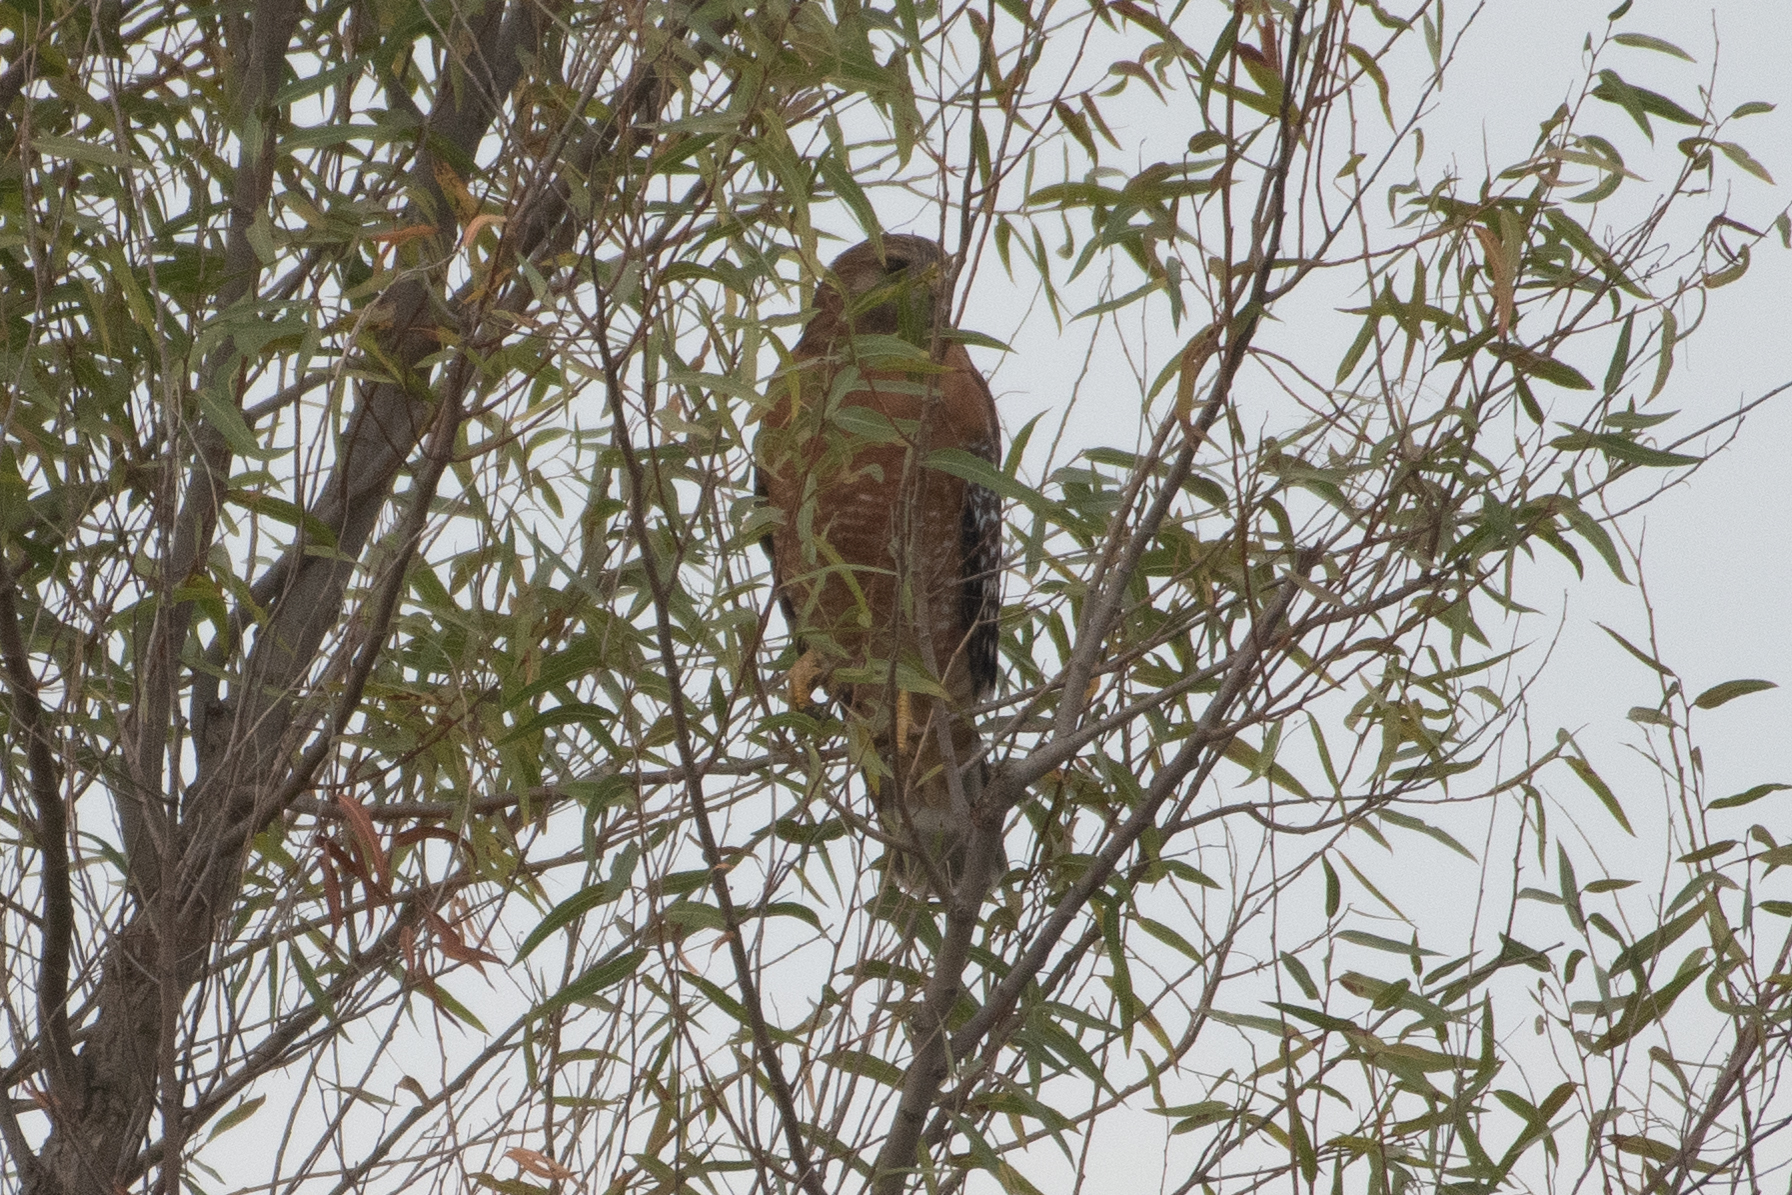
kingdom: Animalia
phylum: Chordata
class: Aves
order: Accipitriformes
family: Accipitridae
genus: Buteo
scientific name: Buteo lineatus
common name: Red-shouldered hawk
